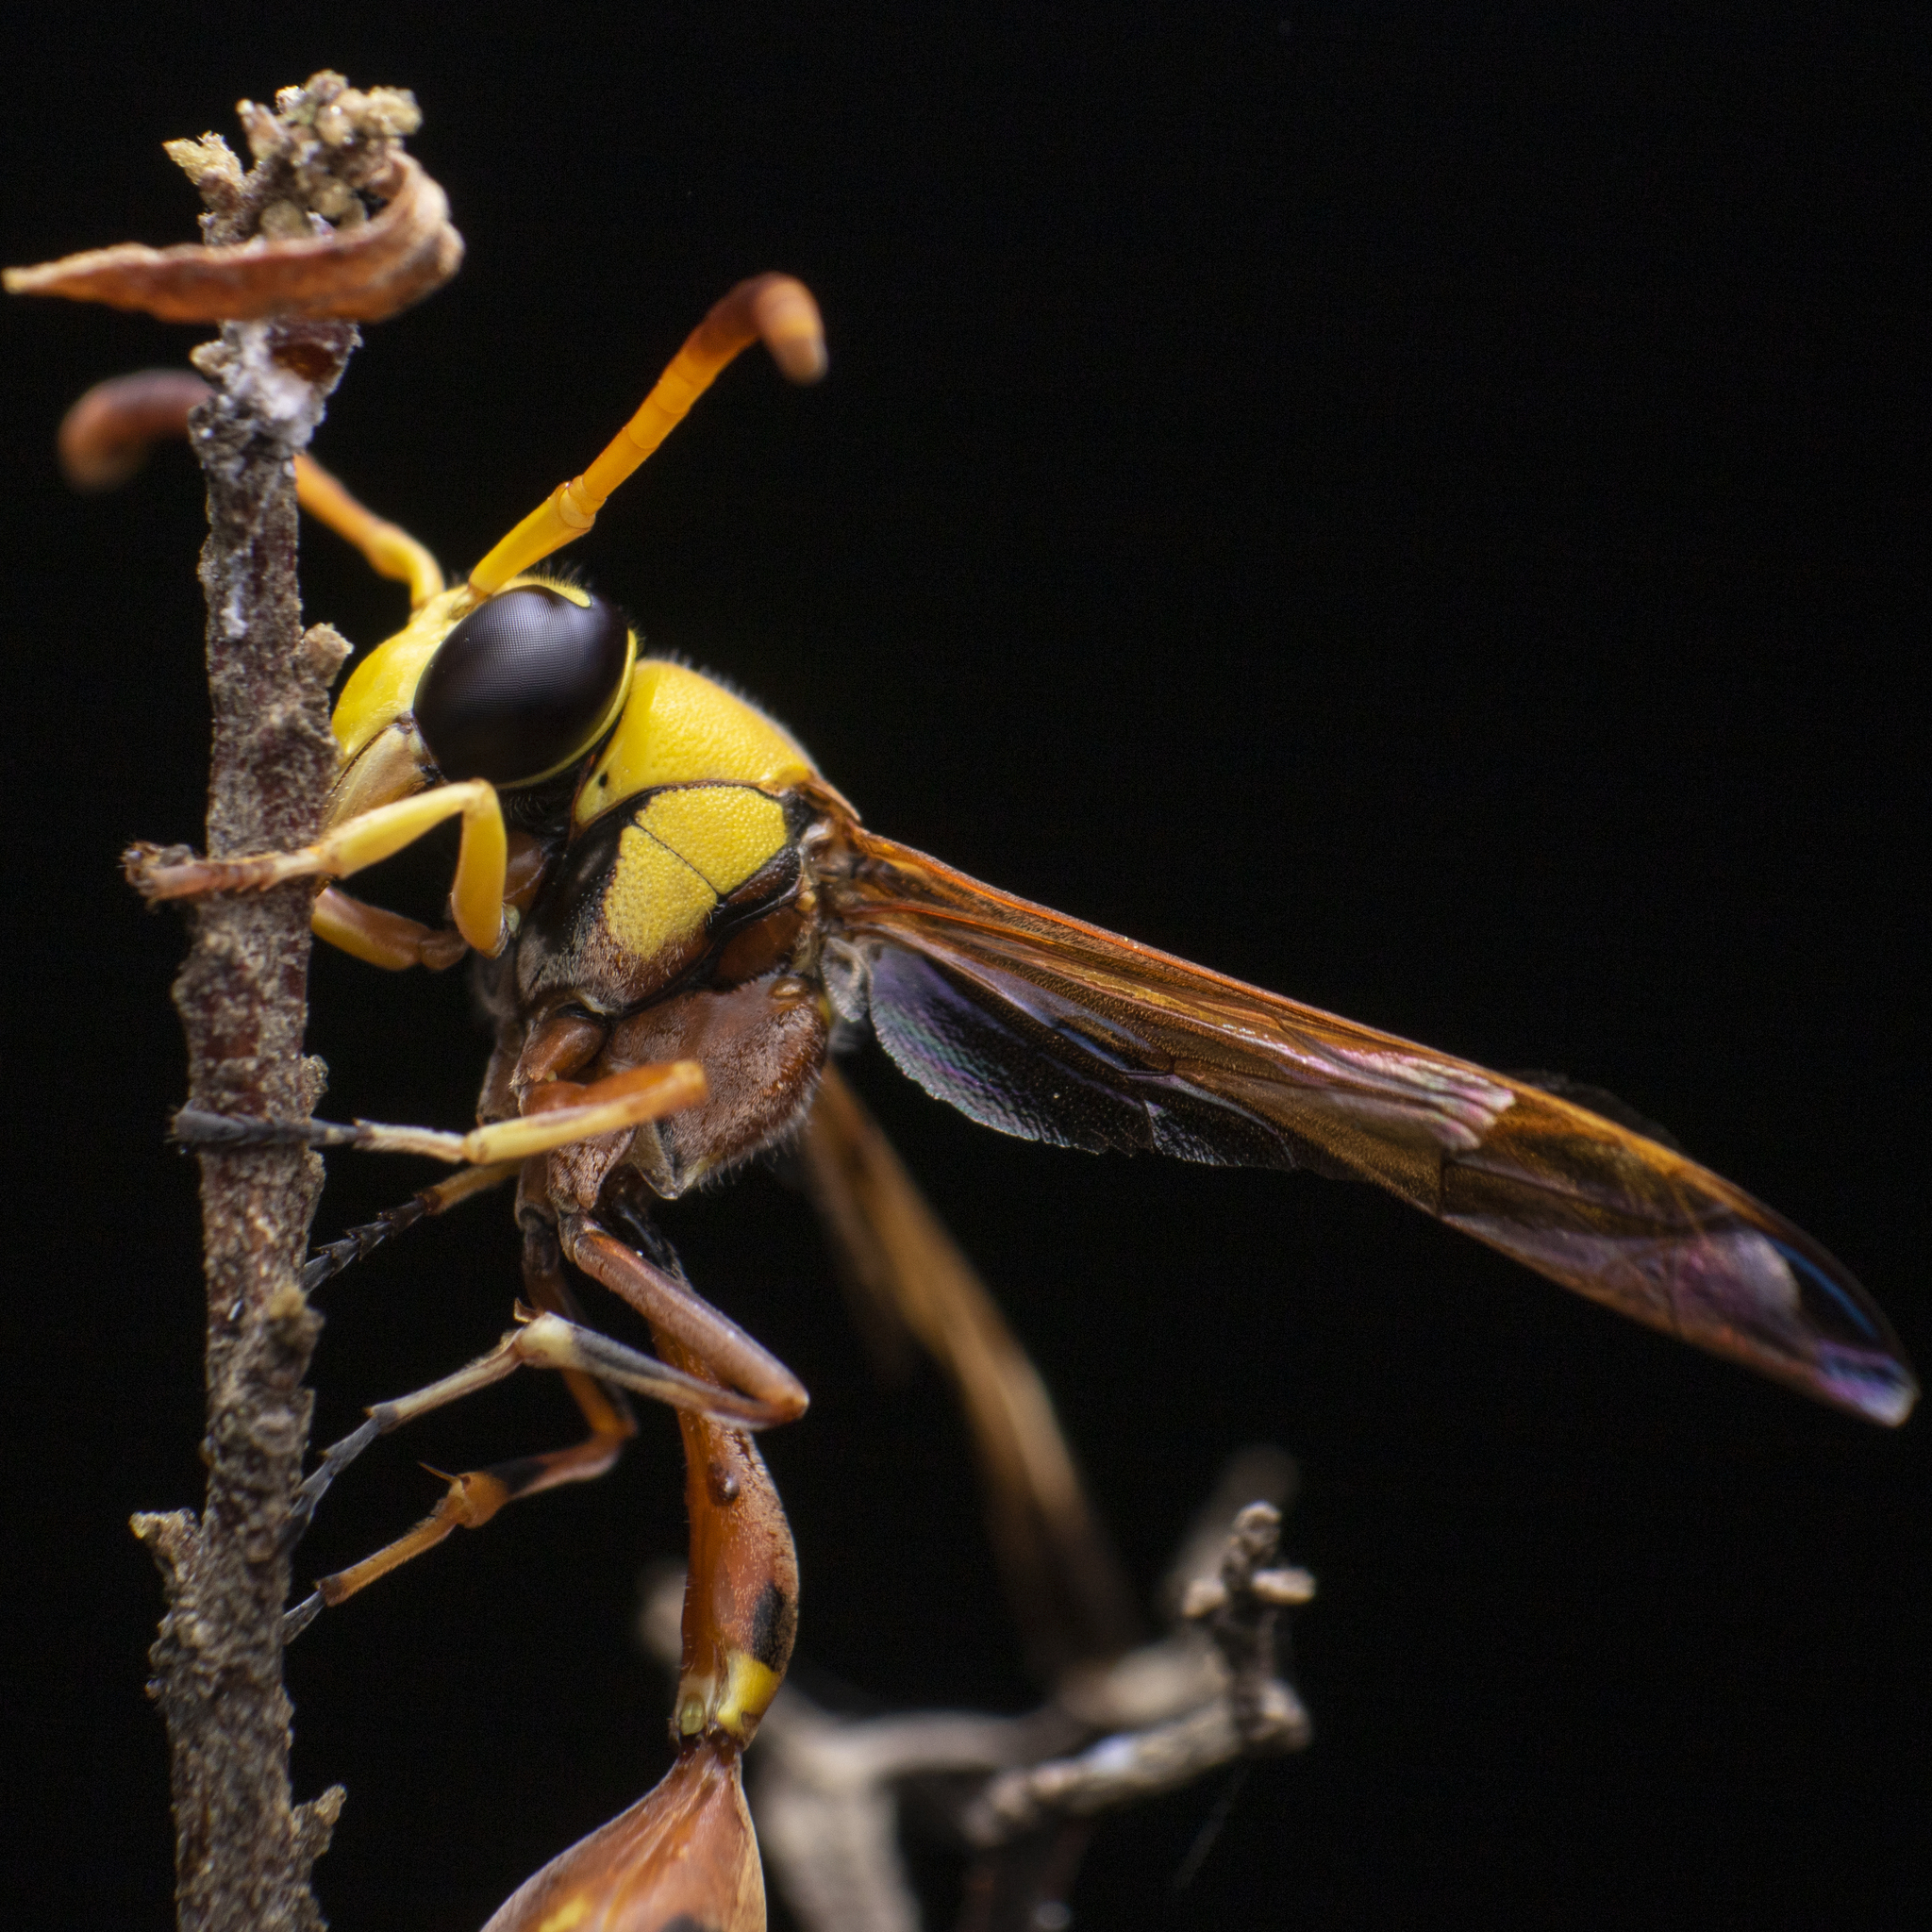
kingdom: Animalia
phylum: Arthropoda
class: Insecta
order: Hymenoptera
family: Eumenidae
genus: Delta
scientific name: Delta esuriens
